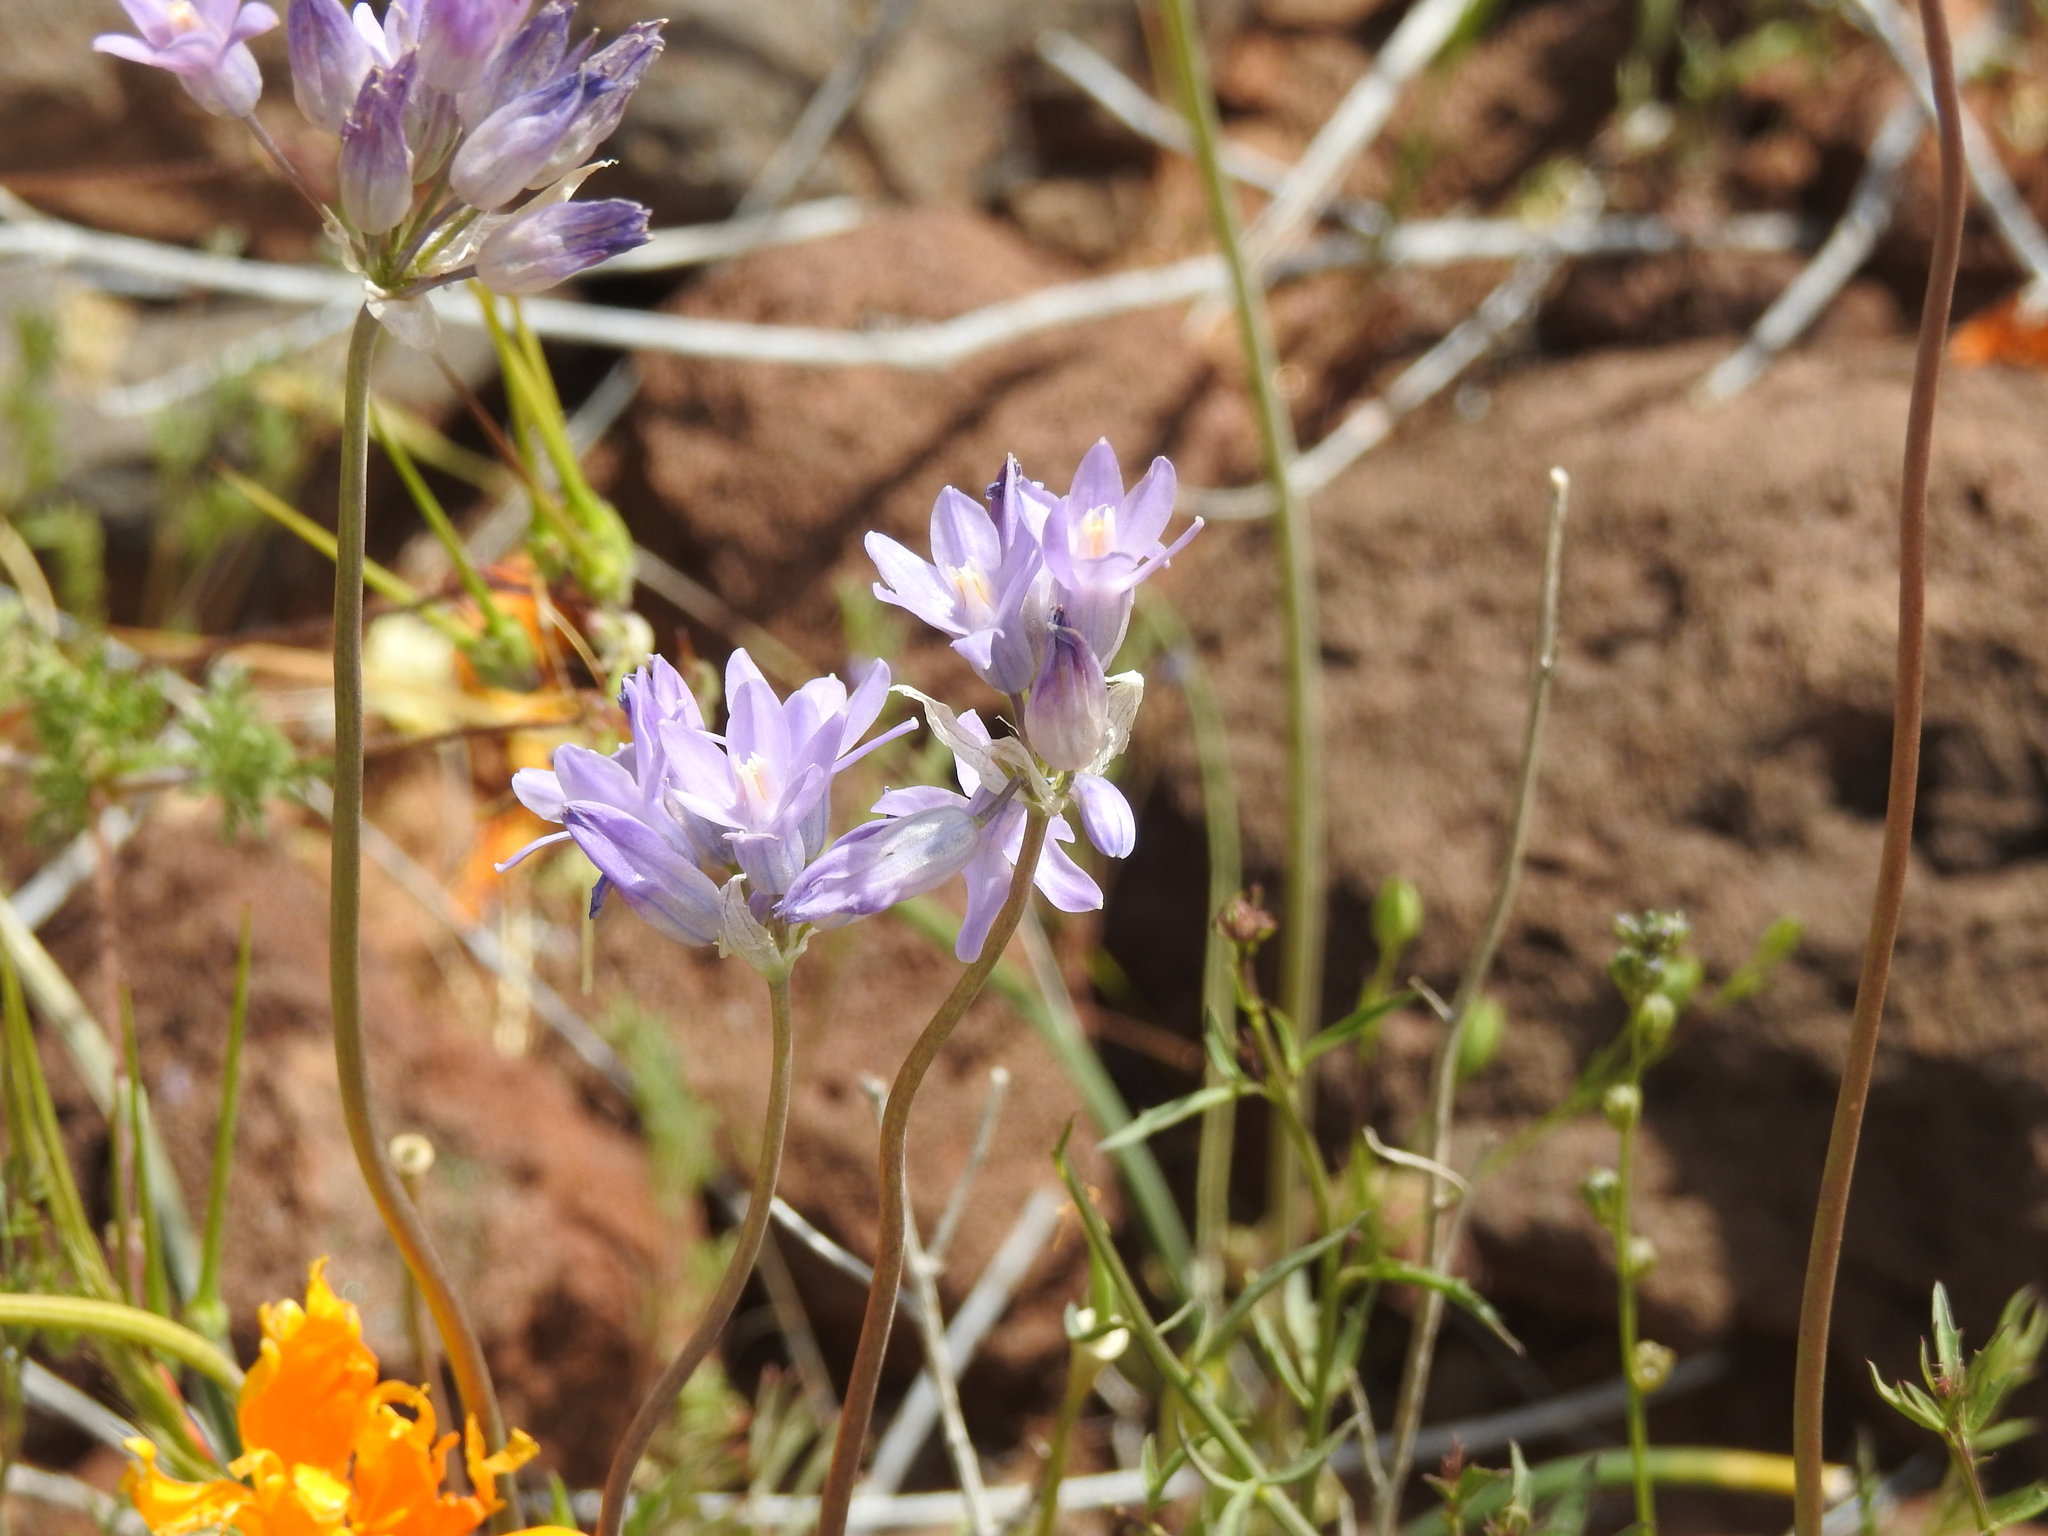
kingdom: Plantae
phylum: Tracheophyta
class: Liliopsida
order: Asparagales
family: Asparagaceae
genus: Dipterostemon
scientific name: Dipterostemon capitatus
